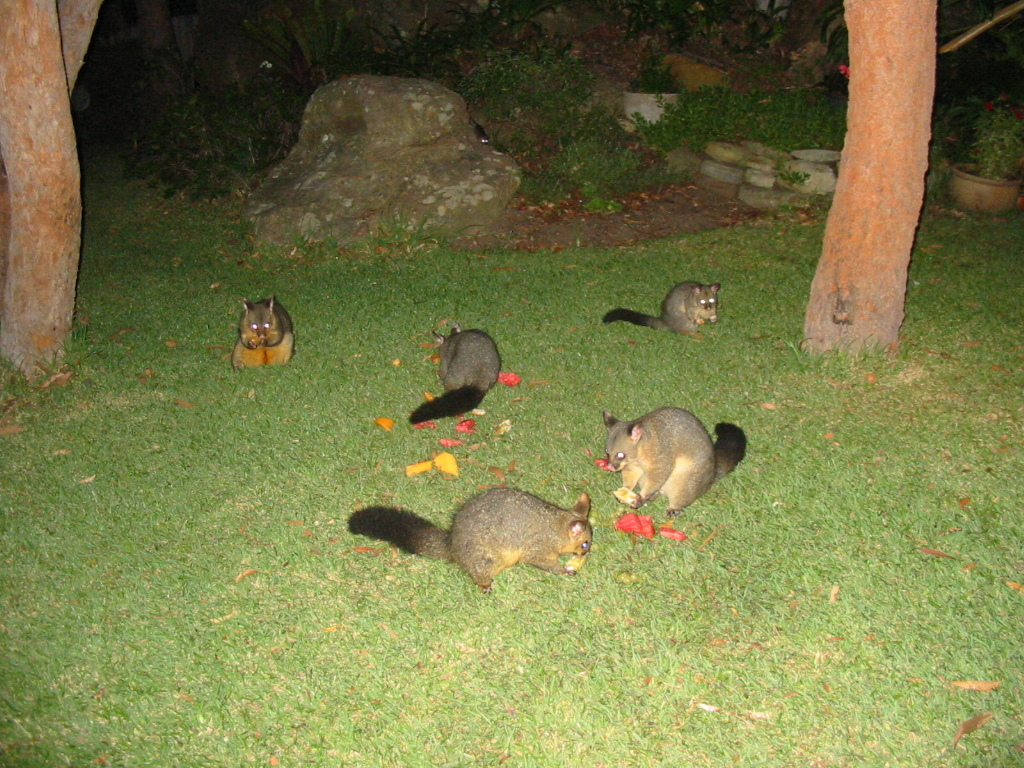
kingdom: Animalia
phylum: Chordata
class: Mammalia
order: Diprotodontia
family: Phalangeridae
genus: Trichosurus
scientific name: Trichosurus vulpecula
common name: Common brushtail
